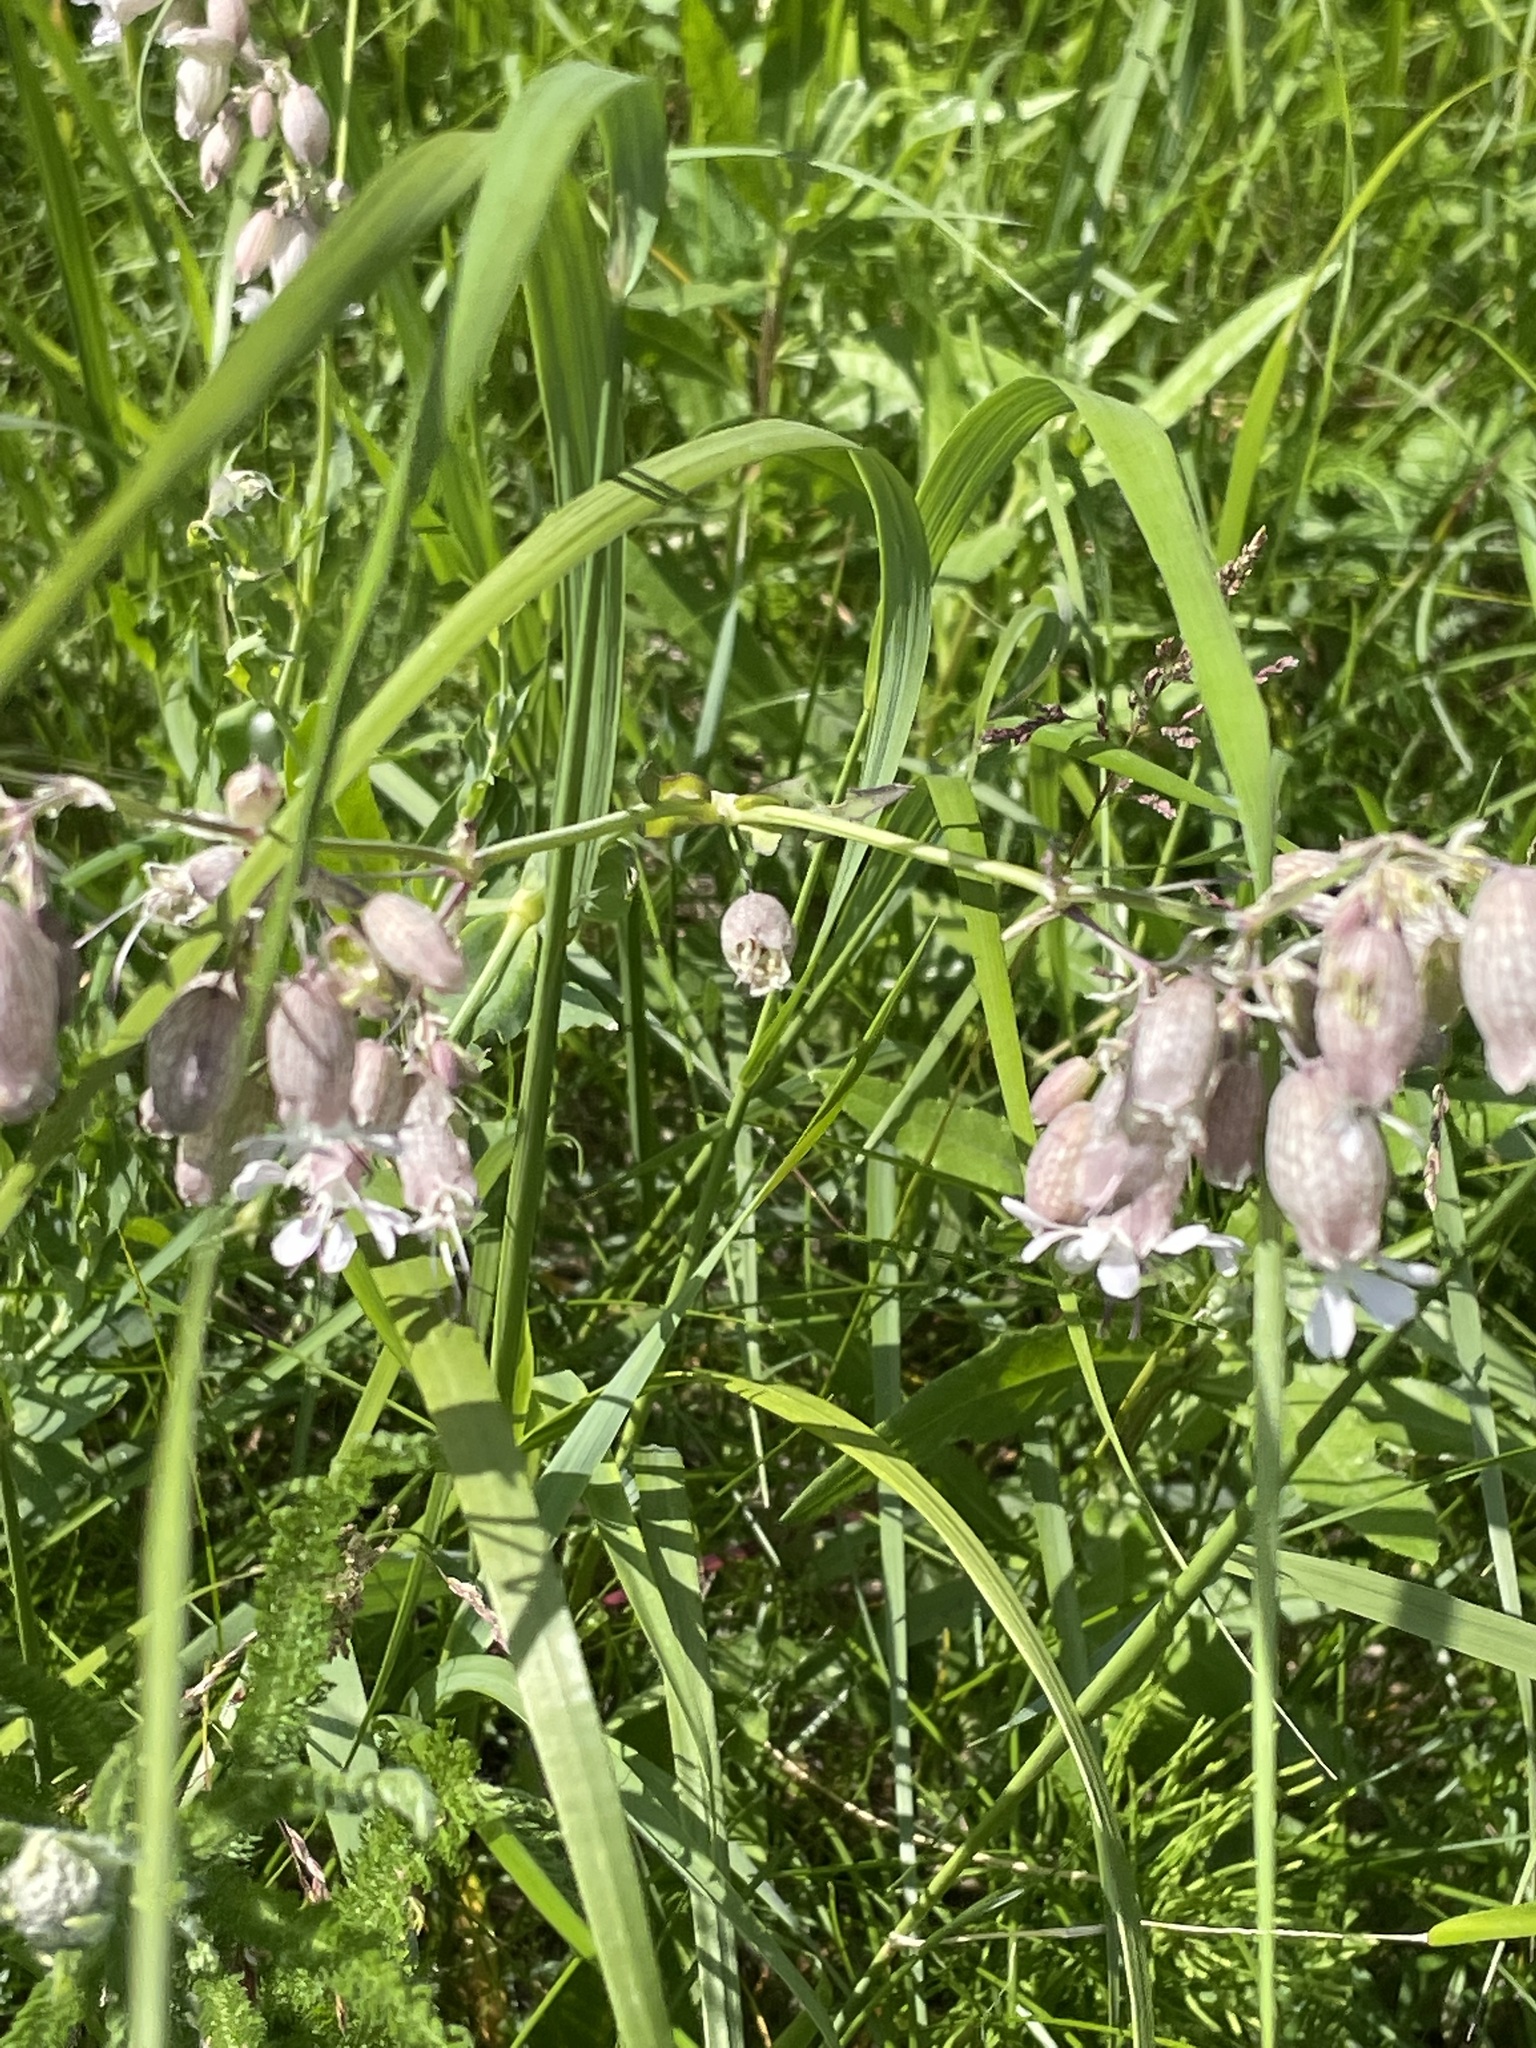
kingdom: Plantae
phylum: Tracheophyta
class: Magnoliopsida
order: Caryophyllales
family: Caryophyllaceae
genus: Silene
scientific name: Silene vulgaris
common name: Bladder campion
